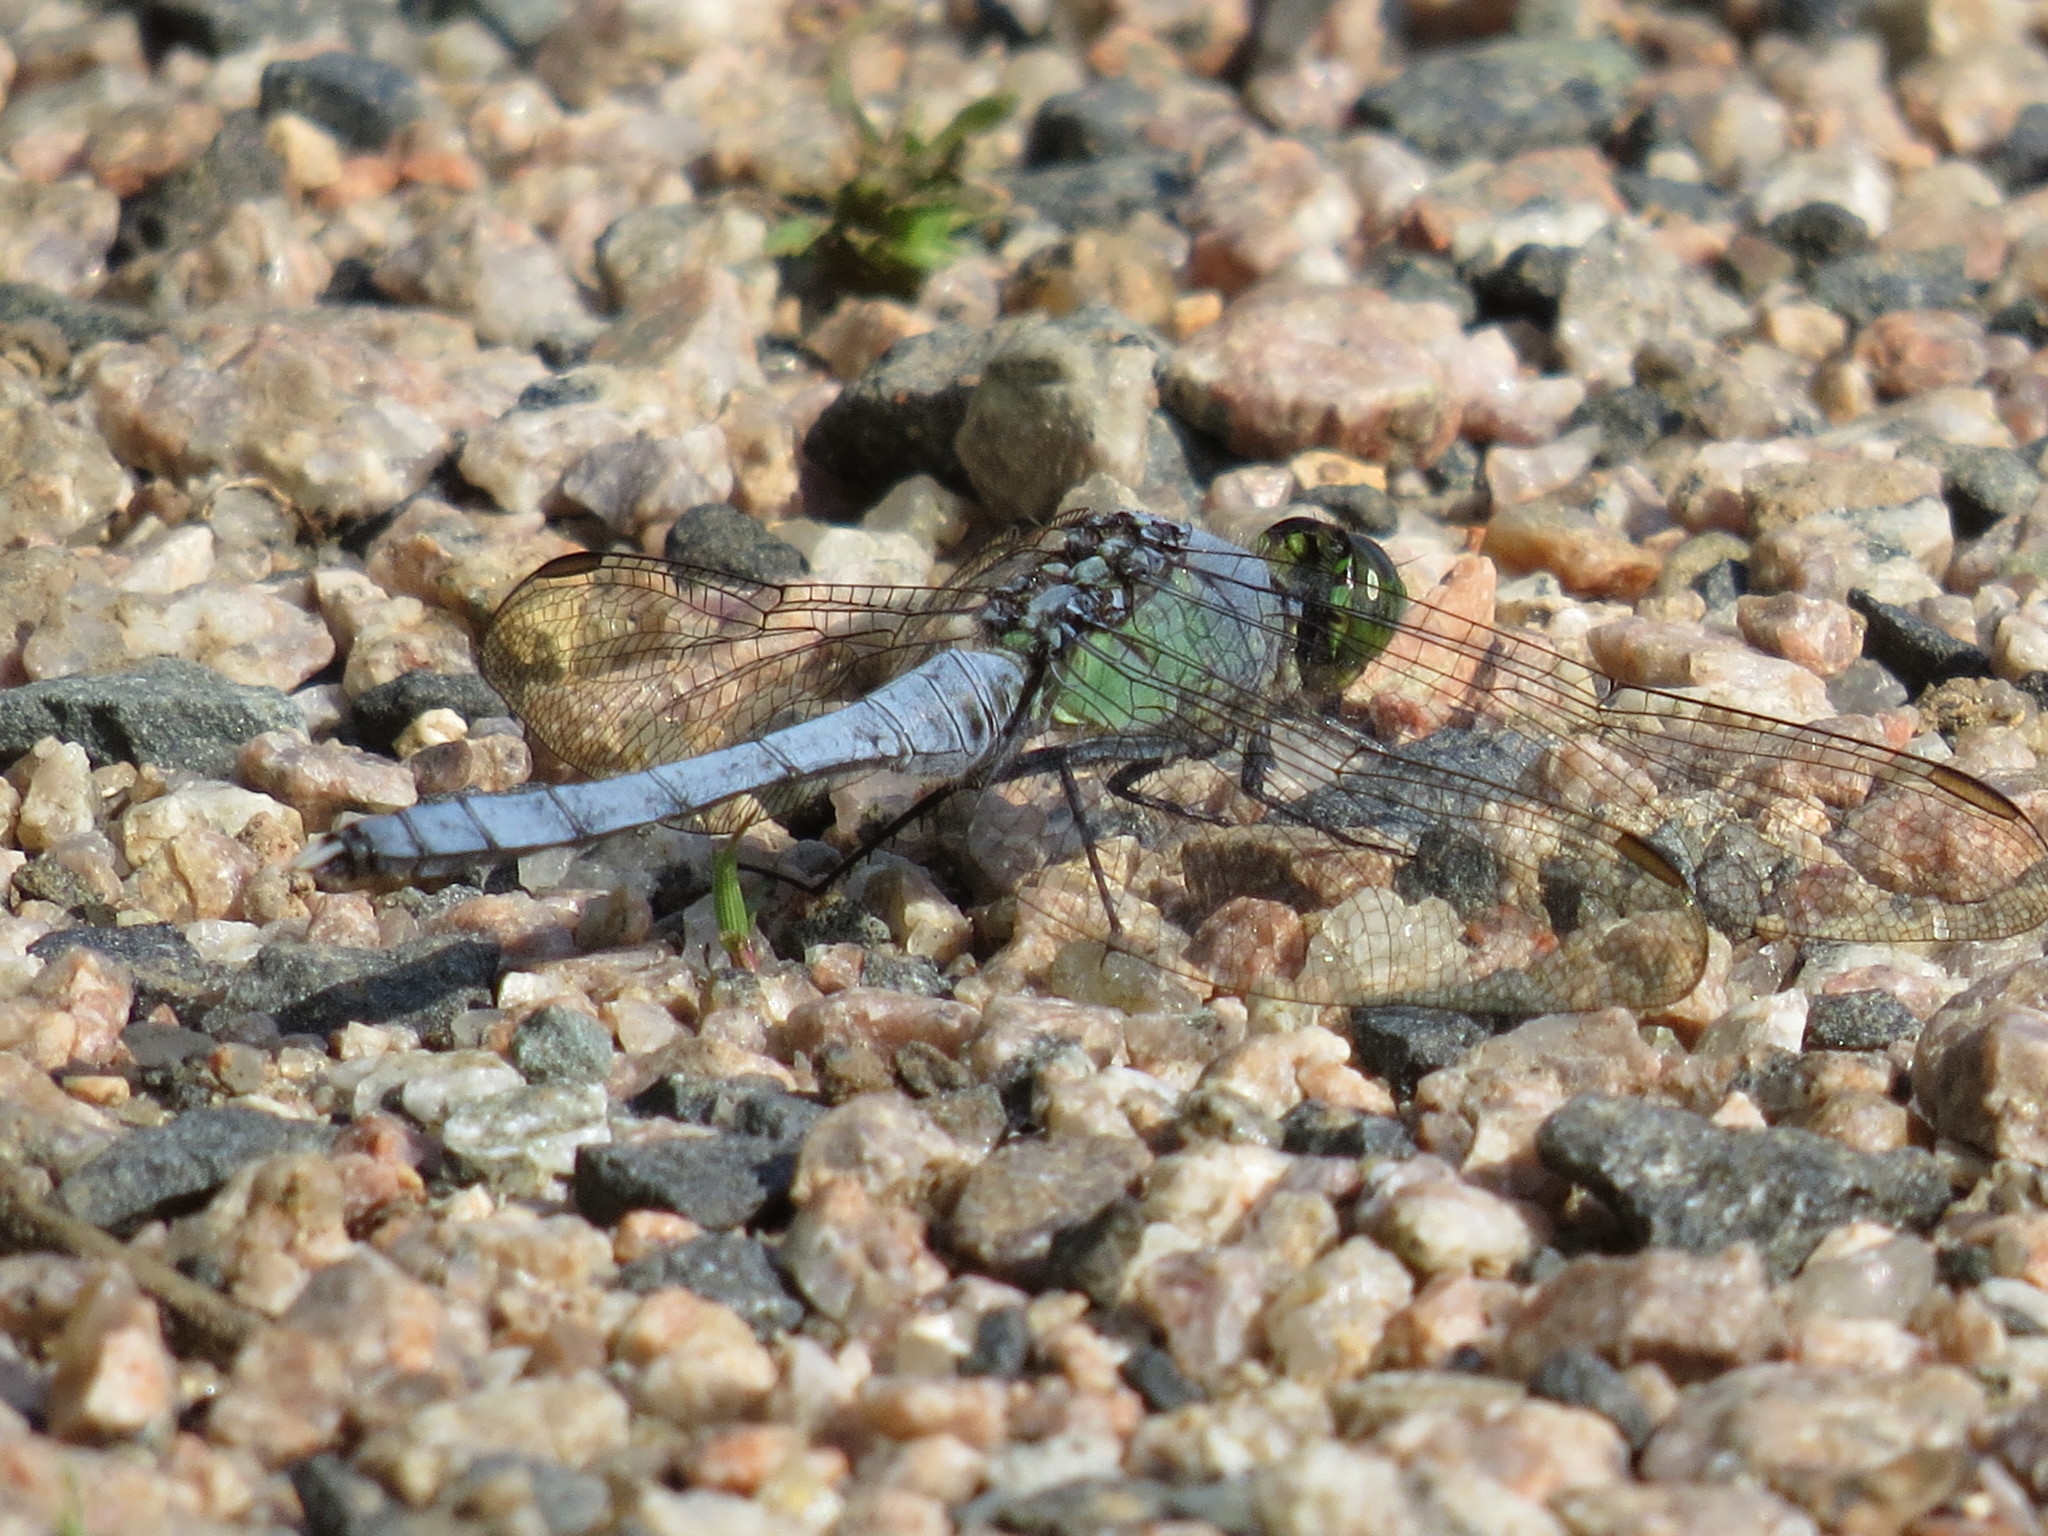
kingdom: Animalia
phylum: Arthropoda
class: Insecta
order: Odonata
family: Libellulidae
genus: Erythemis
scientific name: Erythemis simplicicollis
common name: Eastern pondhawk
